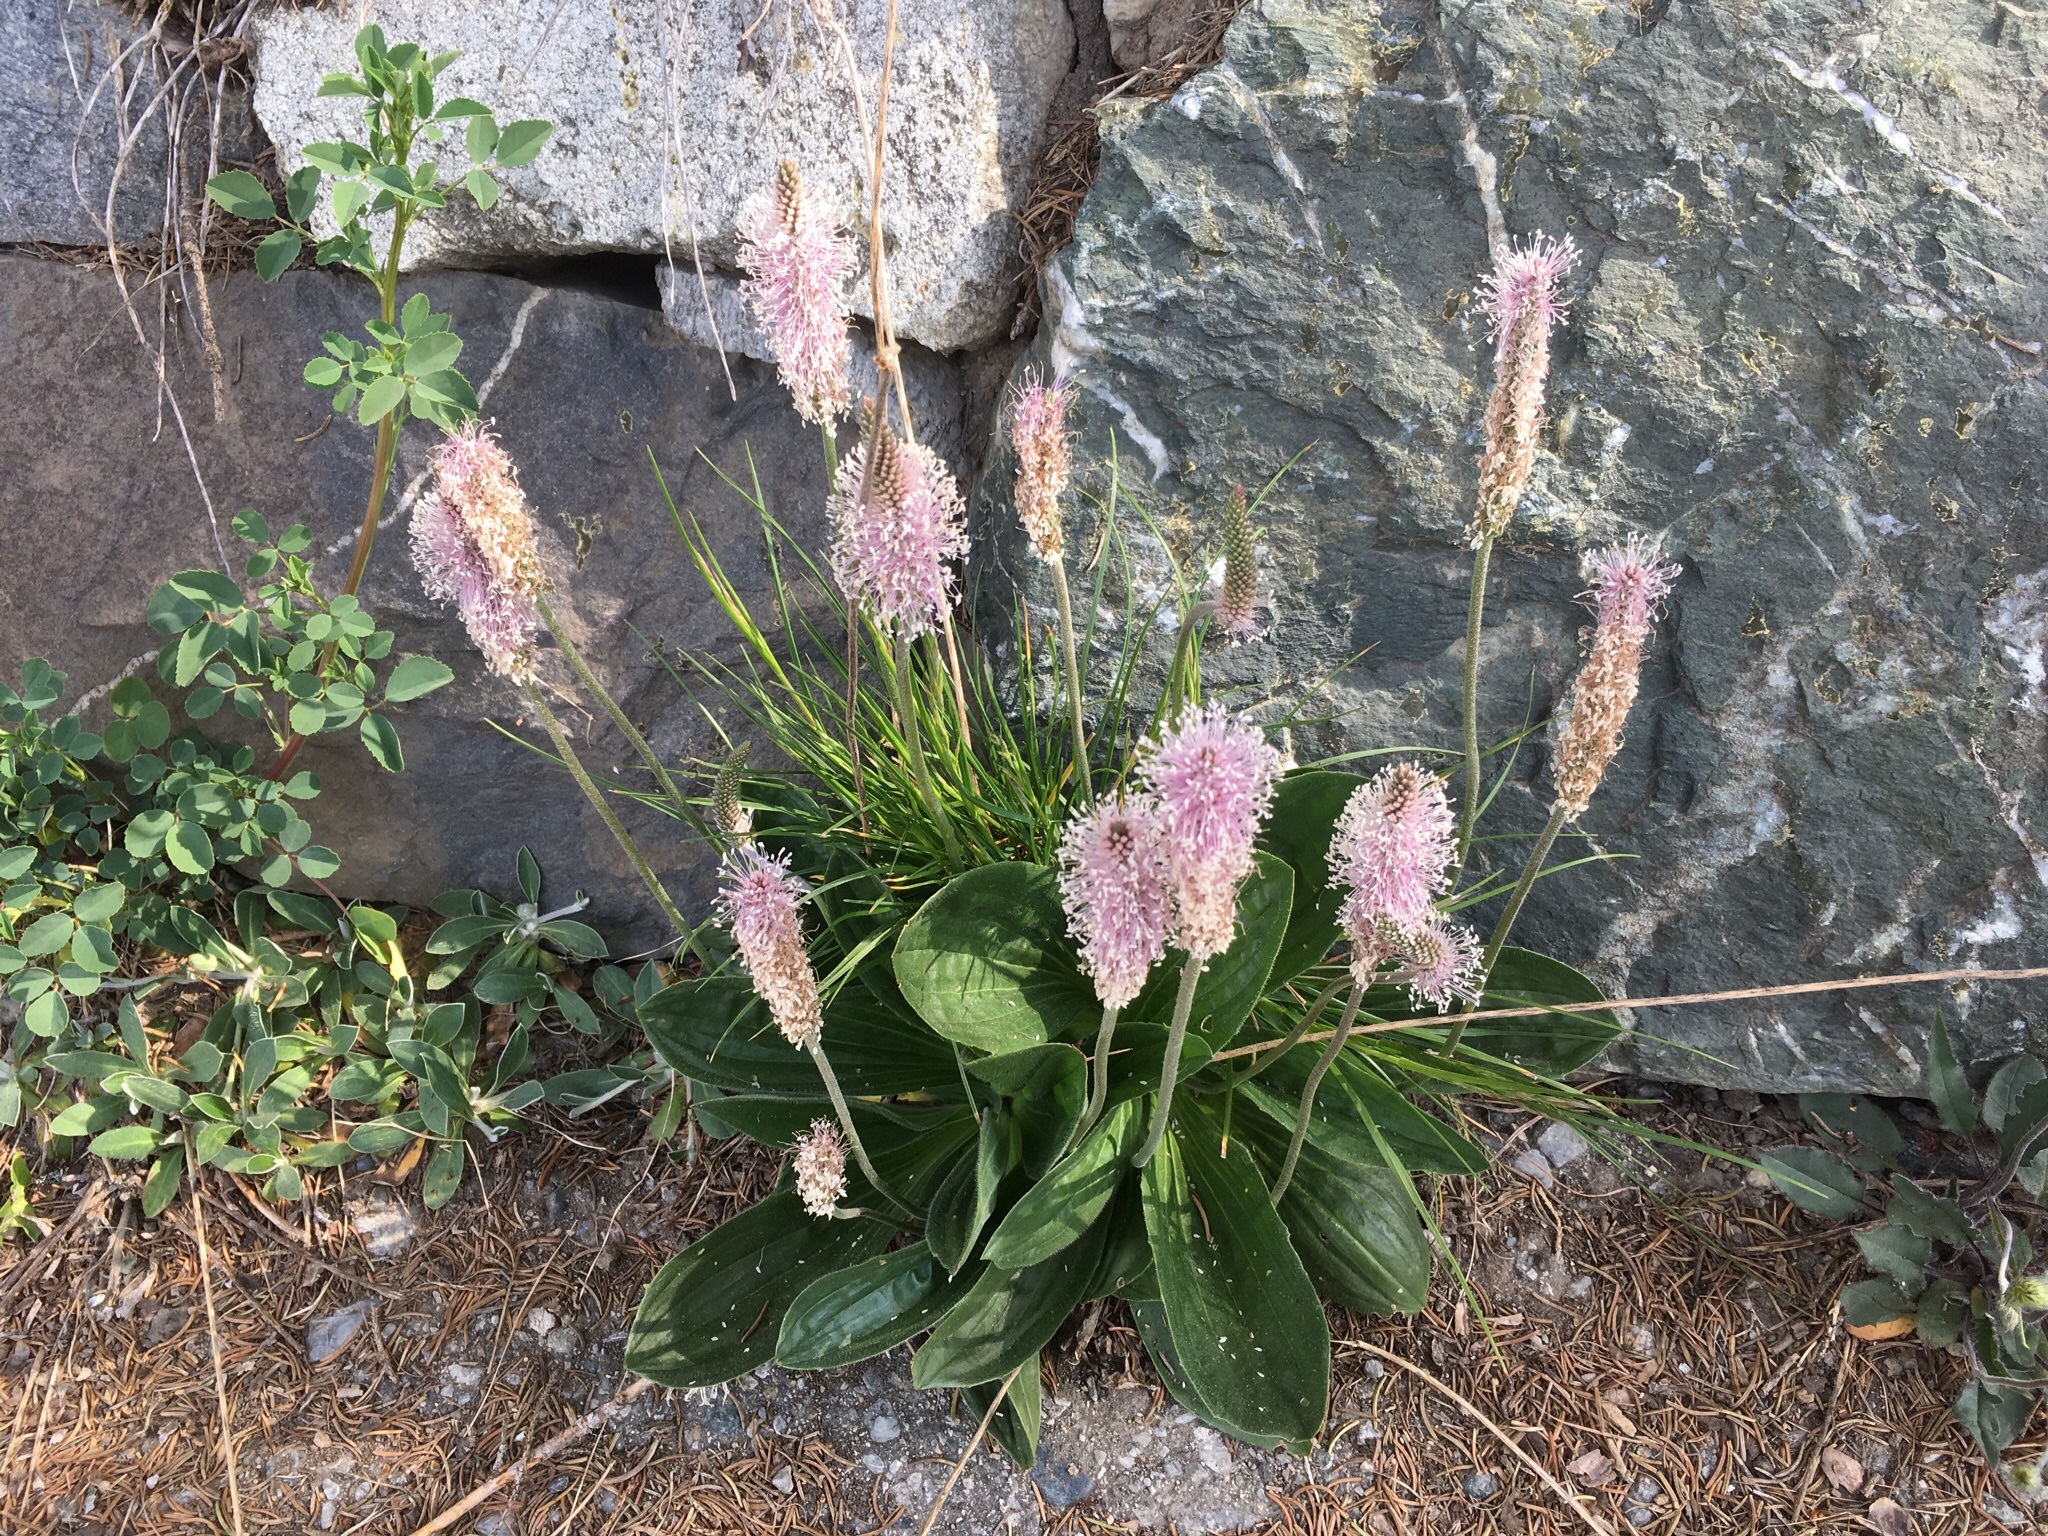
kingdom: Plantae
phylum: Tracheophyta
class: Magnoliopsida
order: Lamiales
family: Plantaginaceae
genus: Plantago
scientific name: Plantago media
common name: Hoary plantain
